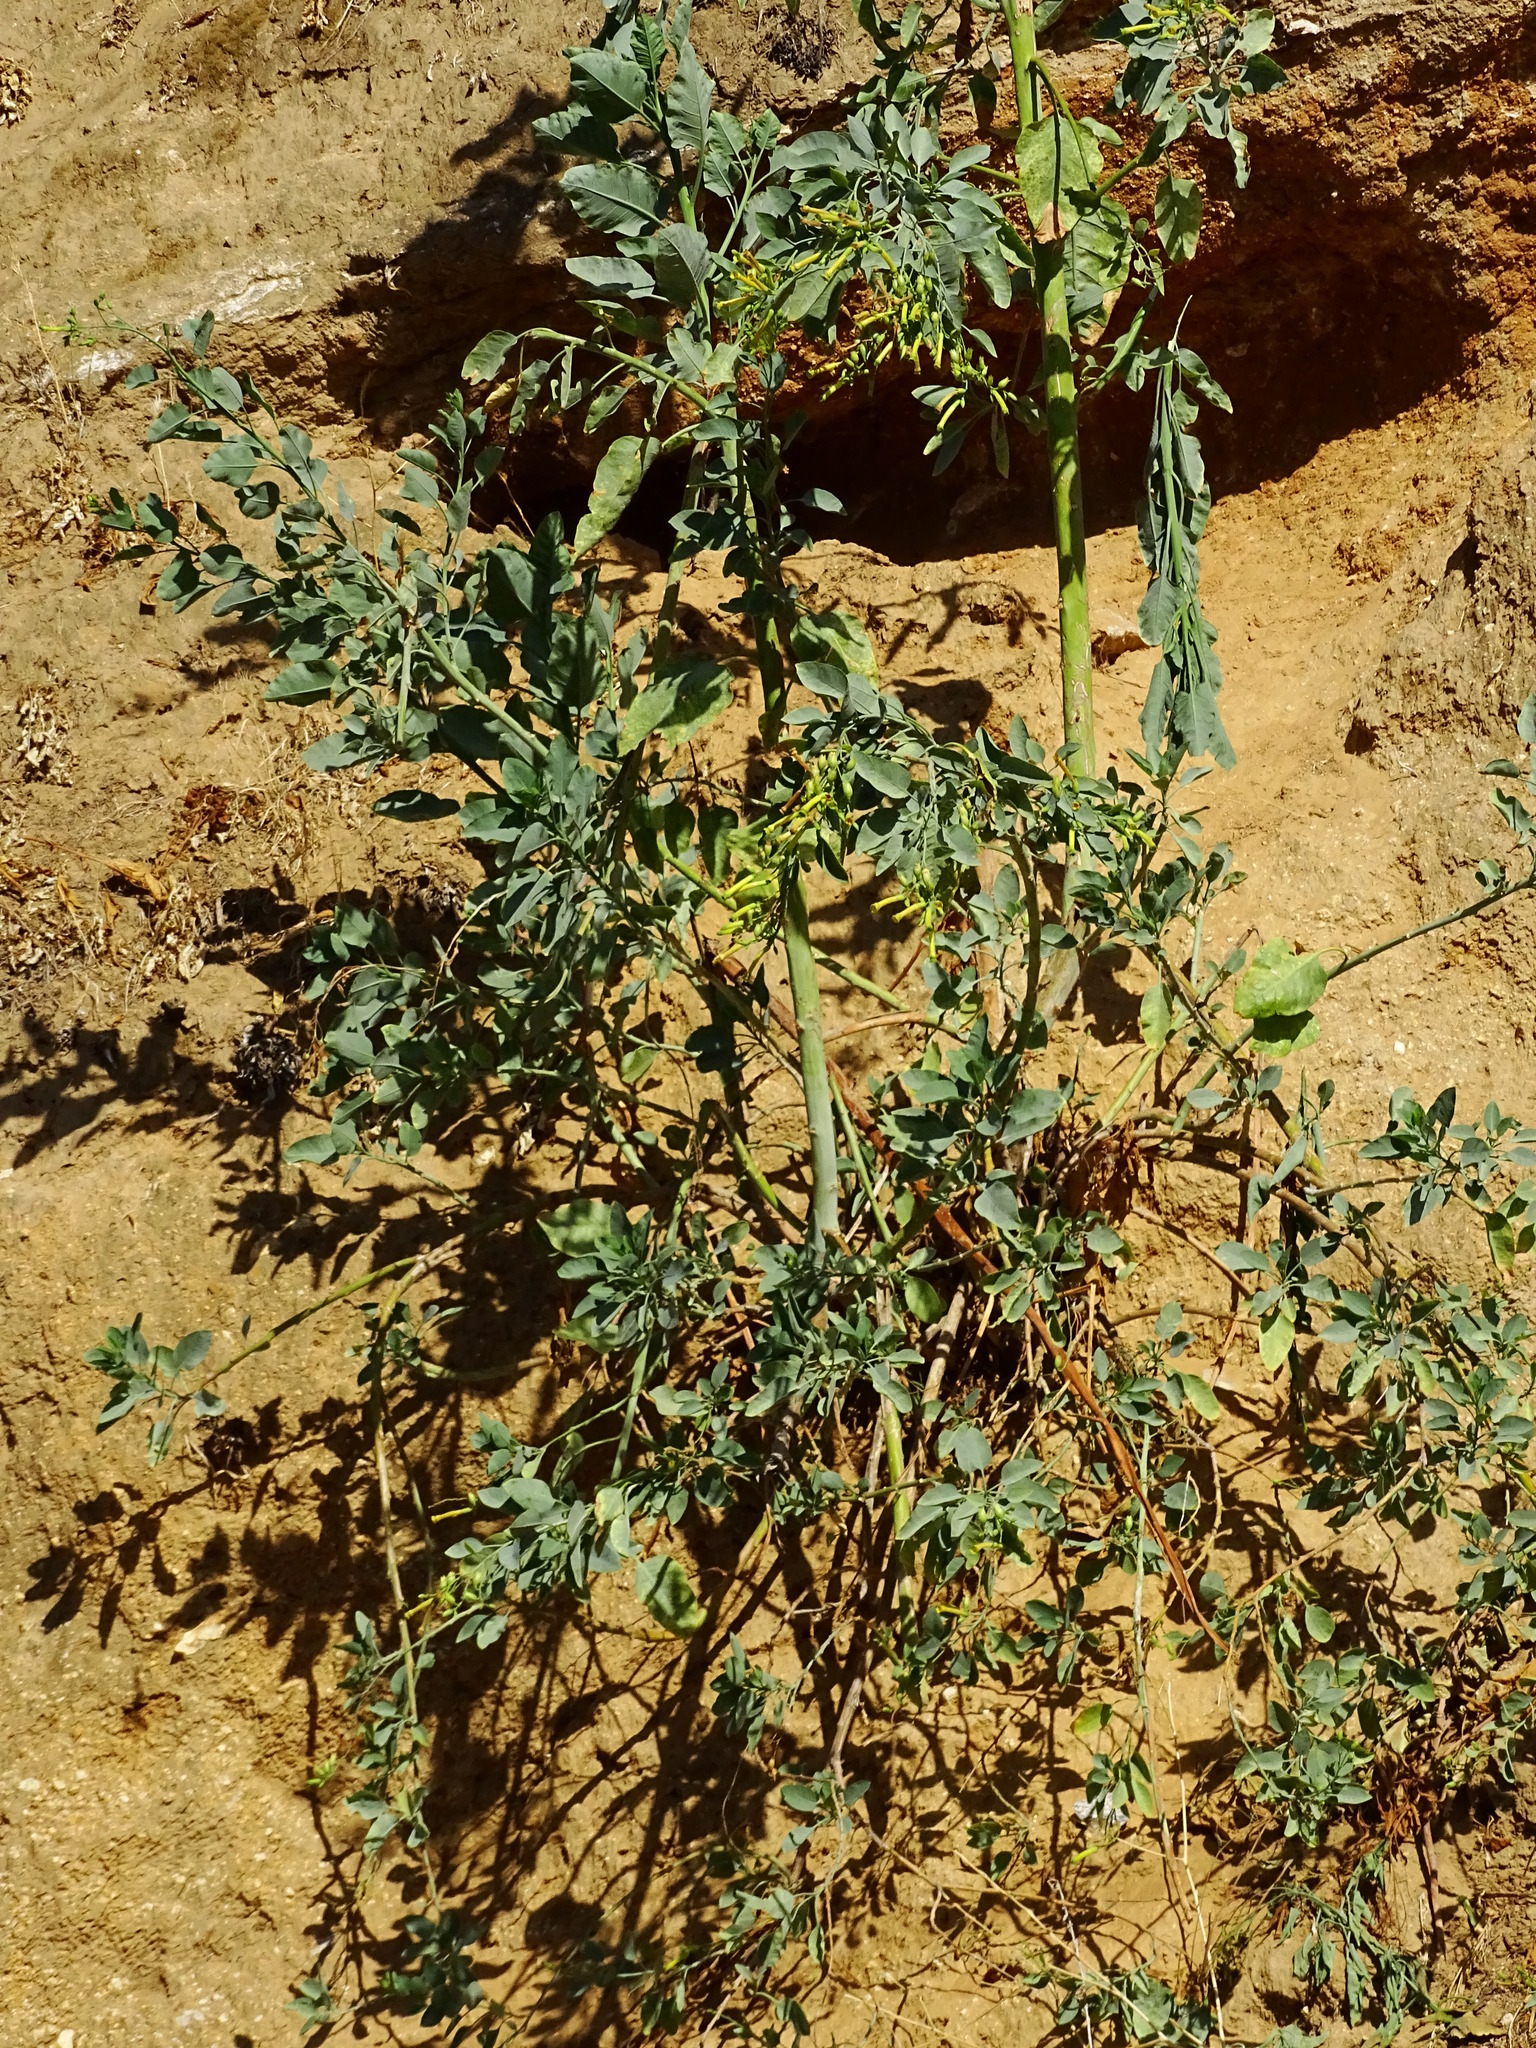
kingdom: Plantae
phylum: Tracheophyta
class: Magnoliopsida
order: Solanales
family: Solanaceae
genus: Nicotiana
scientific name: Nicotiana glauca
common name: Tree tobacco
